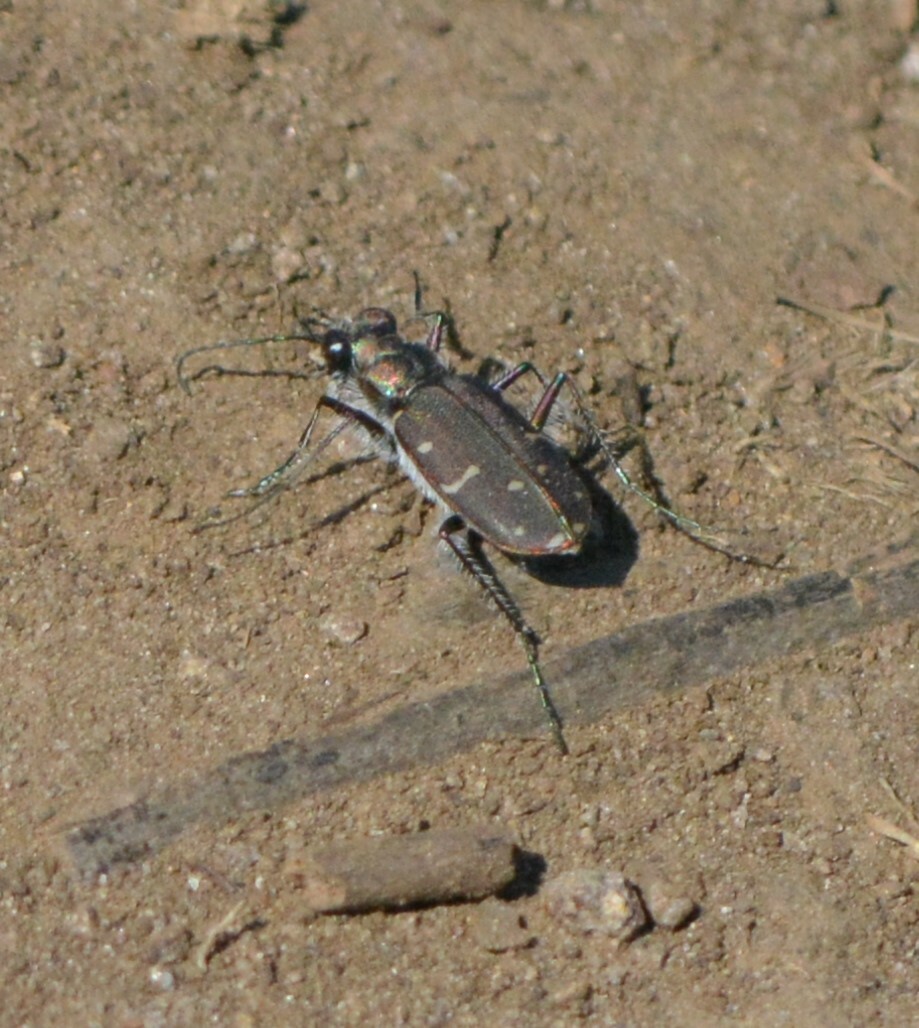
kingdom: Animalia
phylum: Arthropoda
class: Insecta
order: Coleoptera
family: Carabidae
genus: Cicindela
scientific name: Cicindela duodecimguttata
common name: Twelve-spotted tiger beetle
